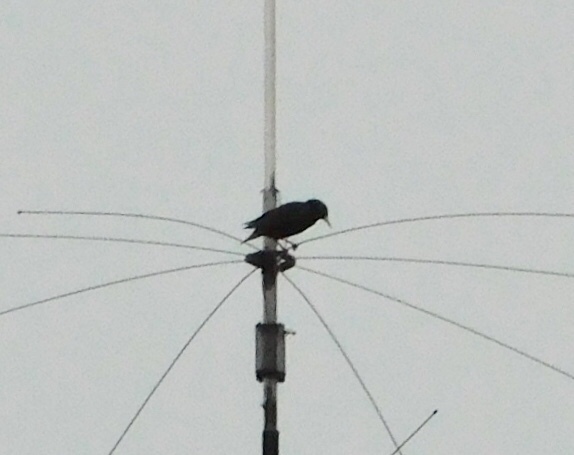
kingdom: Animalia
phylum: Chordata
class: Aves
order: Passeriformes
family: Sturnidae
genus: Sturnus
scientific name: Sturnus vulgaris
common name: Common starling
